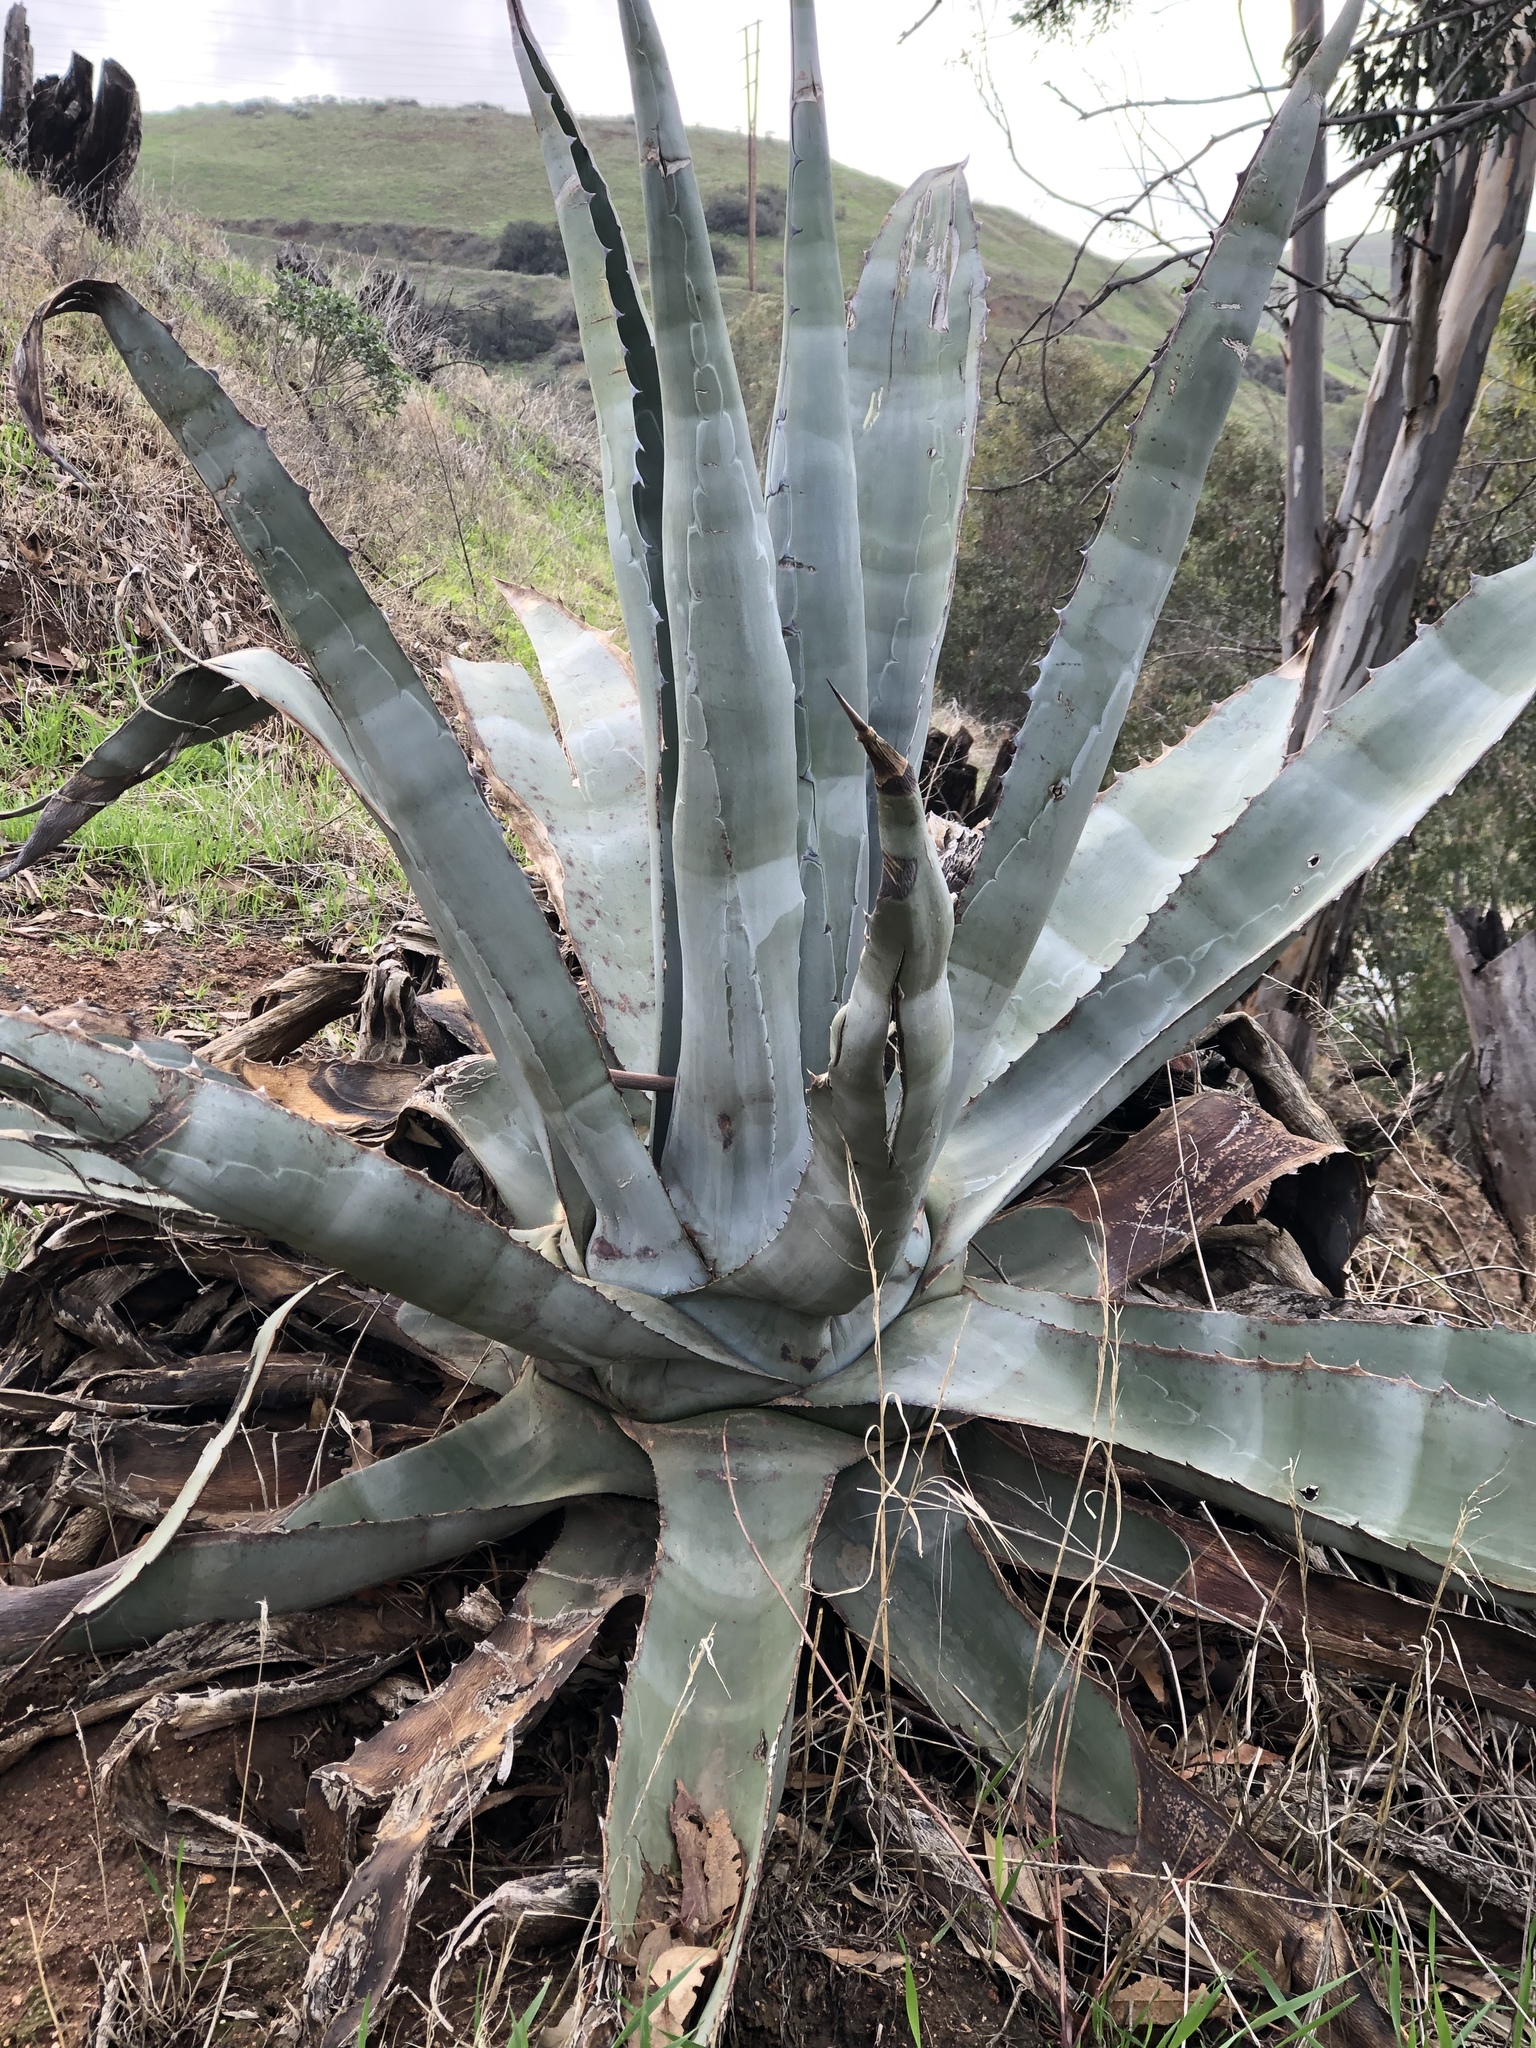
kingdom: Plantae
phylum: Tracheophyta
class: Liliopsida
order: Asparagales
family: Asparagaceae
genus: Agave
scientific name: Agave americana
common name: Centuryplant
